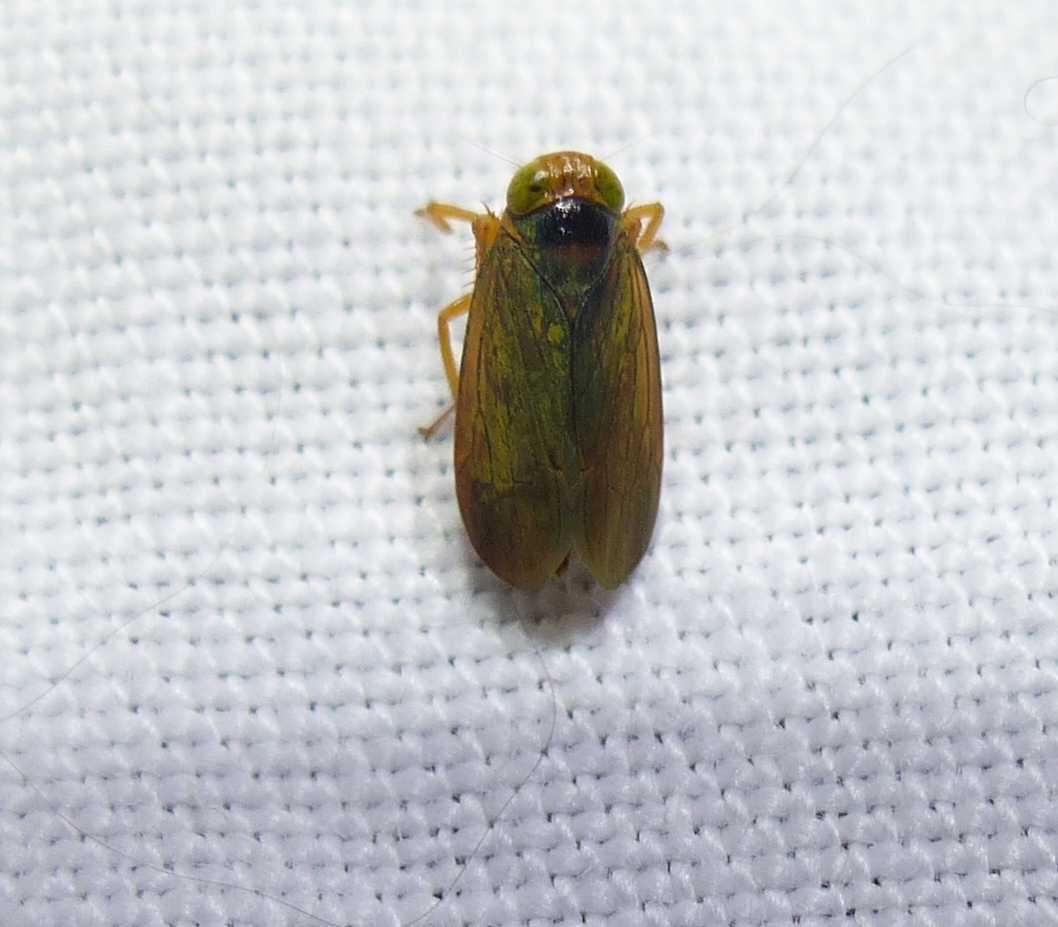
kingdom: Animalia
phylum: Arthropoda
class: Insecta
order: Hemiptera
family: Cicadellidae
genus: Jikradia
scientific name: Jikradia olitoria
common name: Coppery leafhopper
